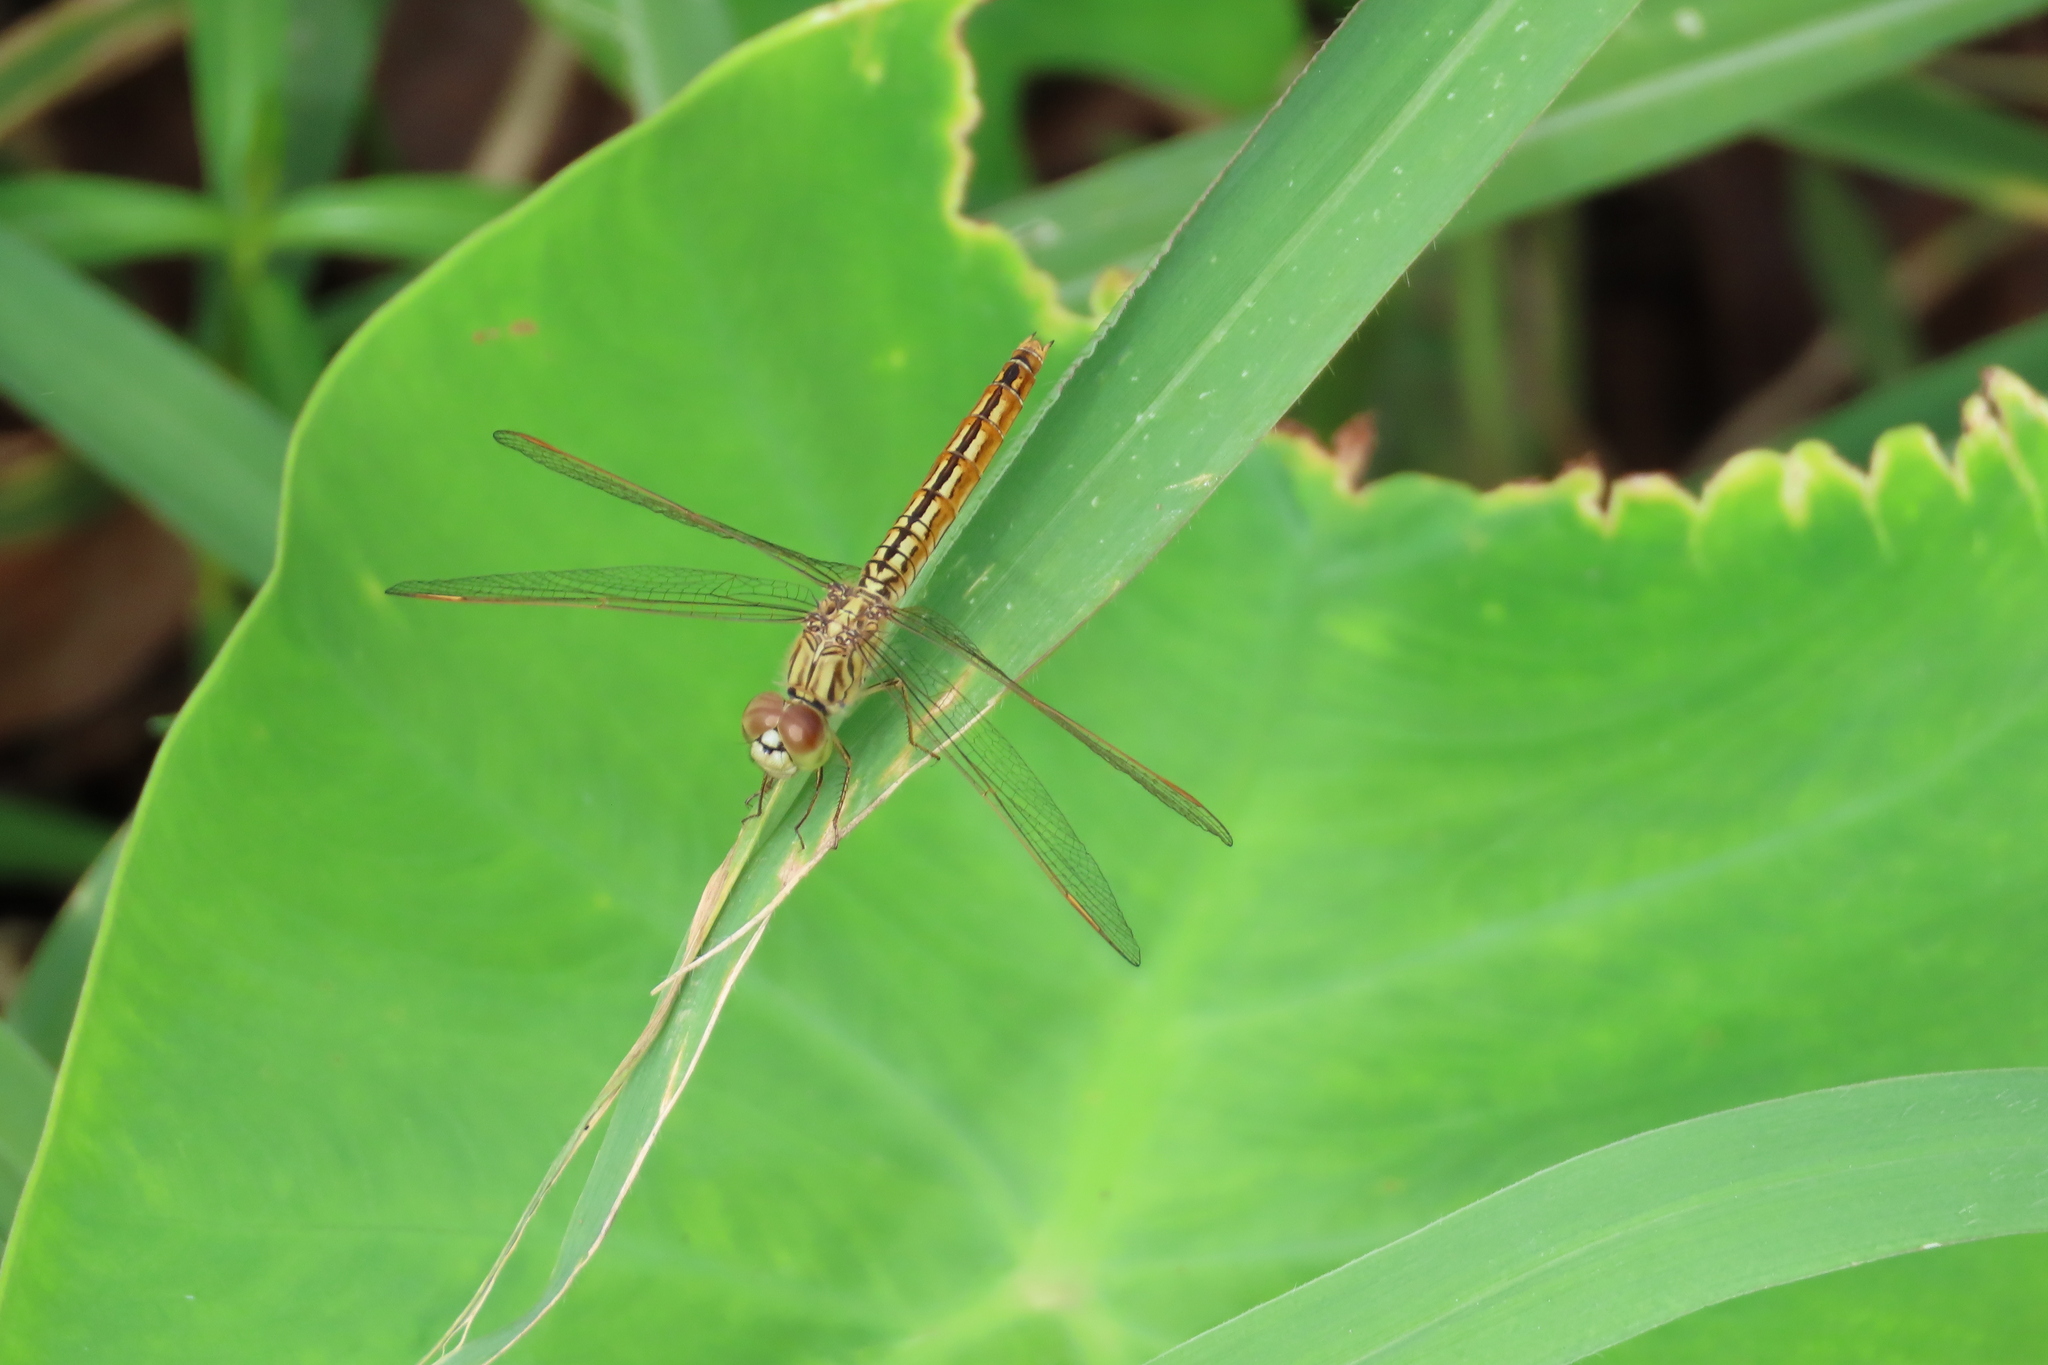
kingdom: Animalia
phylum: Arthropoda
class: Insecta
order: Odonata
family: Libellulidae
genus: Brachythemis
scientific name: Brachythemis contaminata
